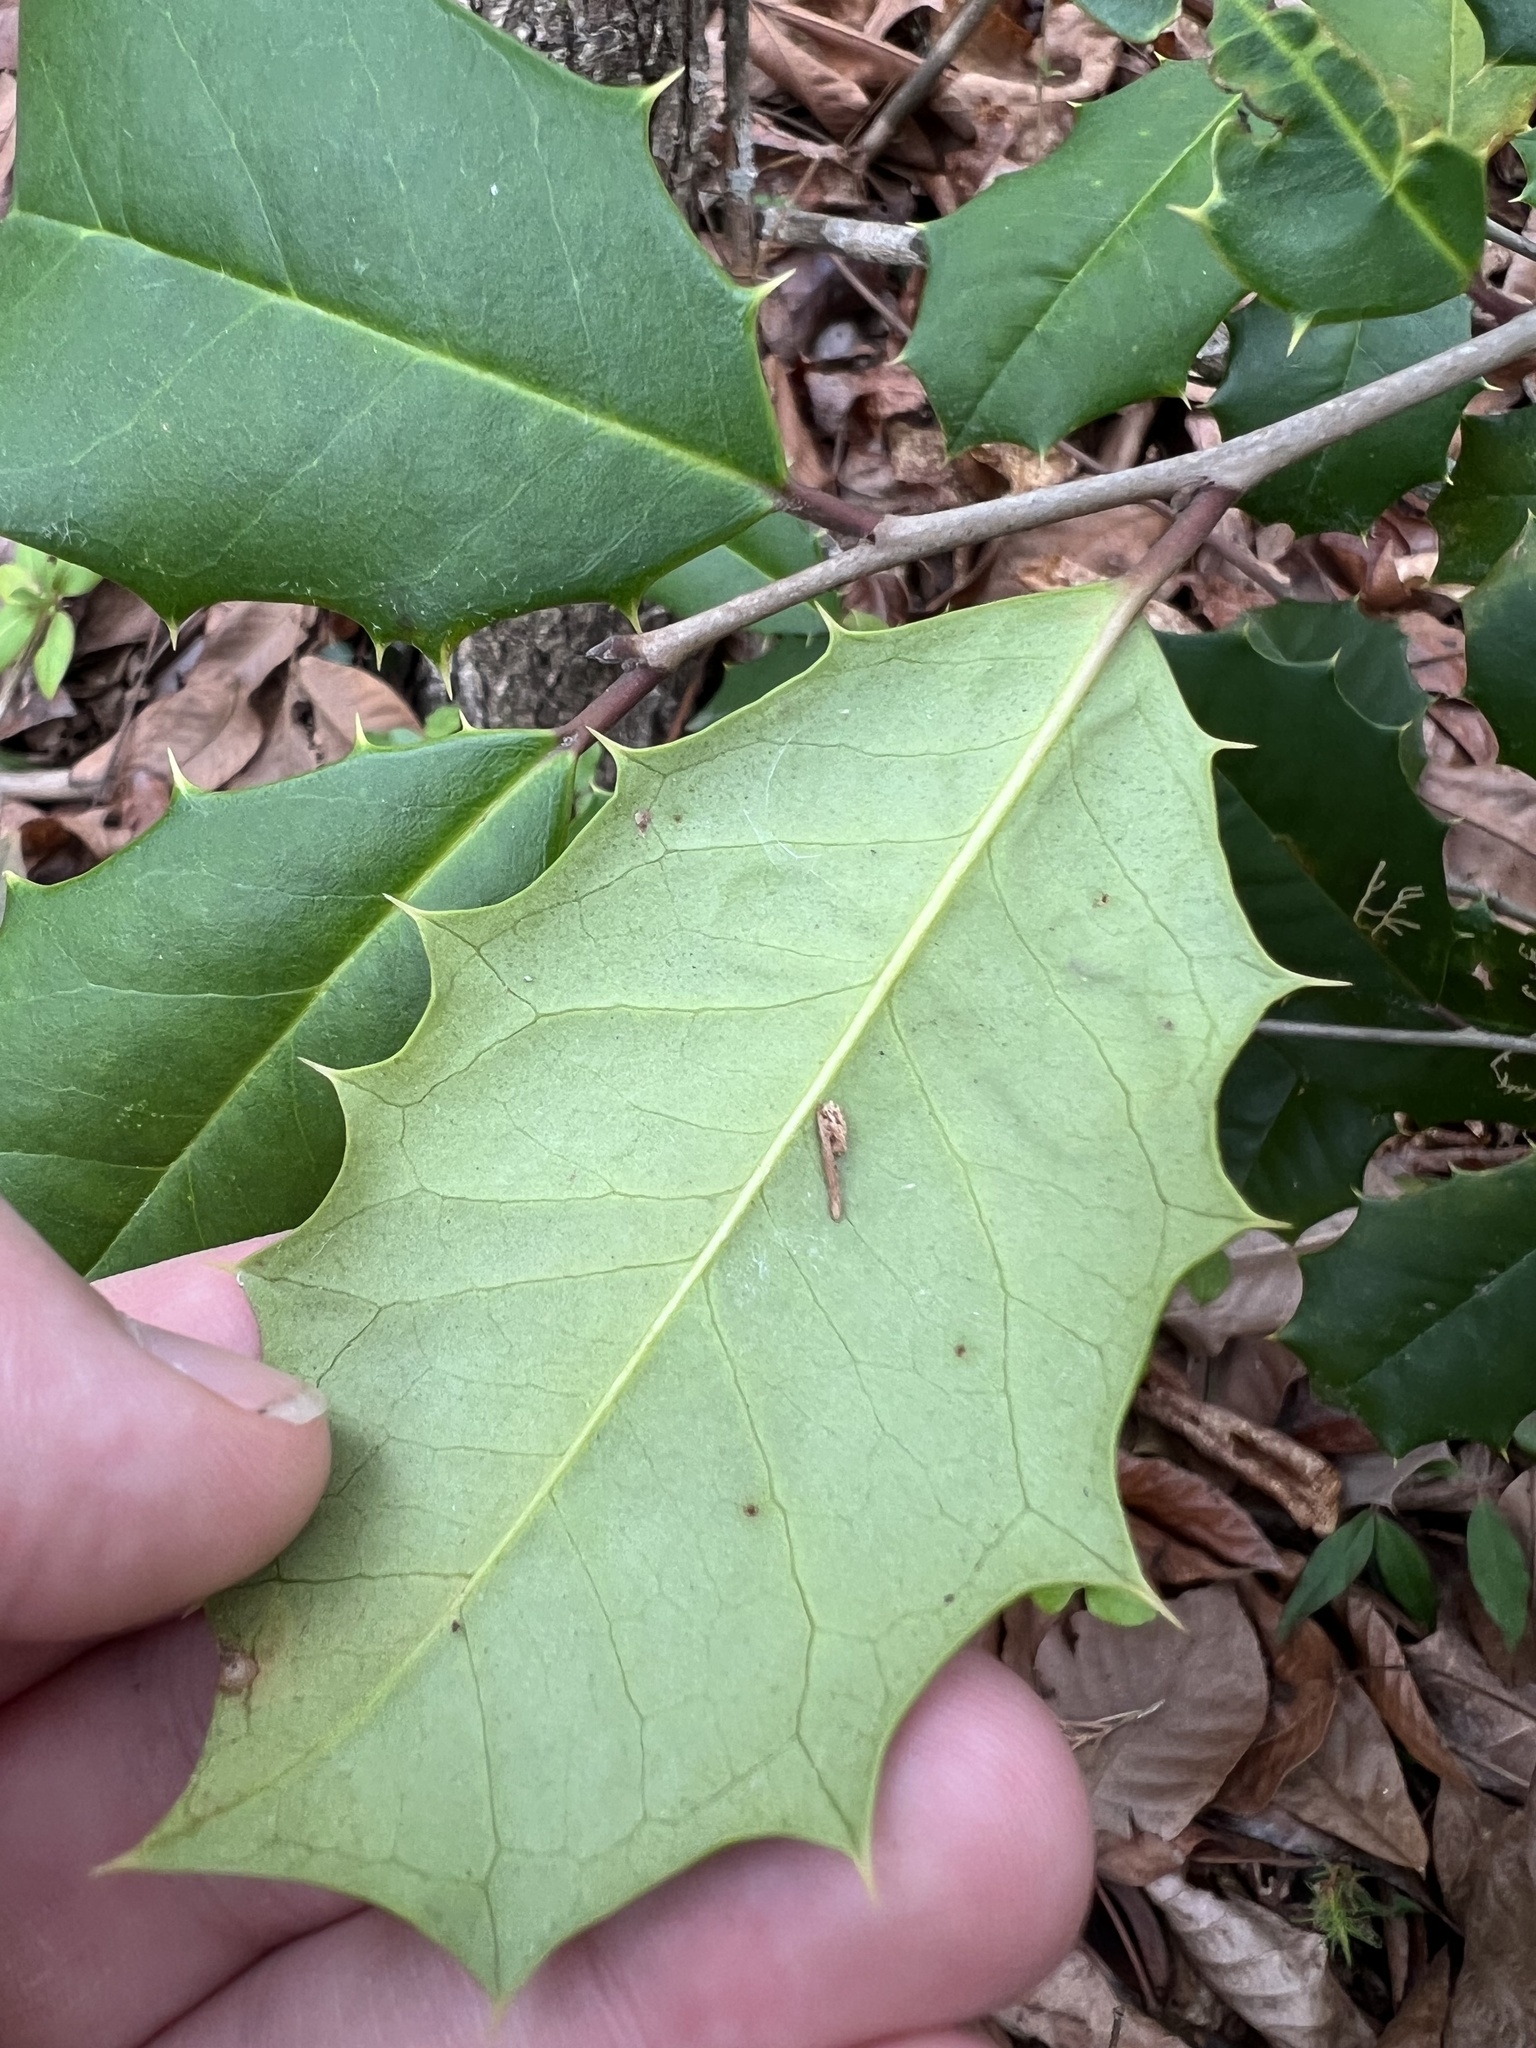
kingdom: Plantae
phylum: Tracheophyta
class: Magnoliopsida
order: Aquifoliales
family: Aquifoliaceae
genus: Ilex
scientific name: Ilex opaca
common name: American holly
